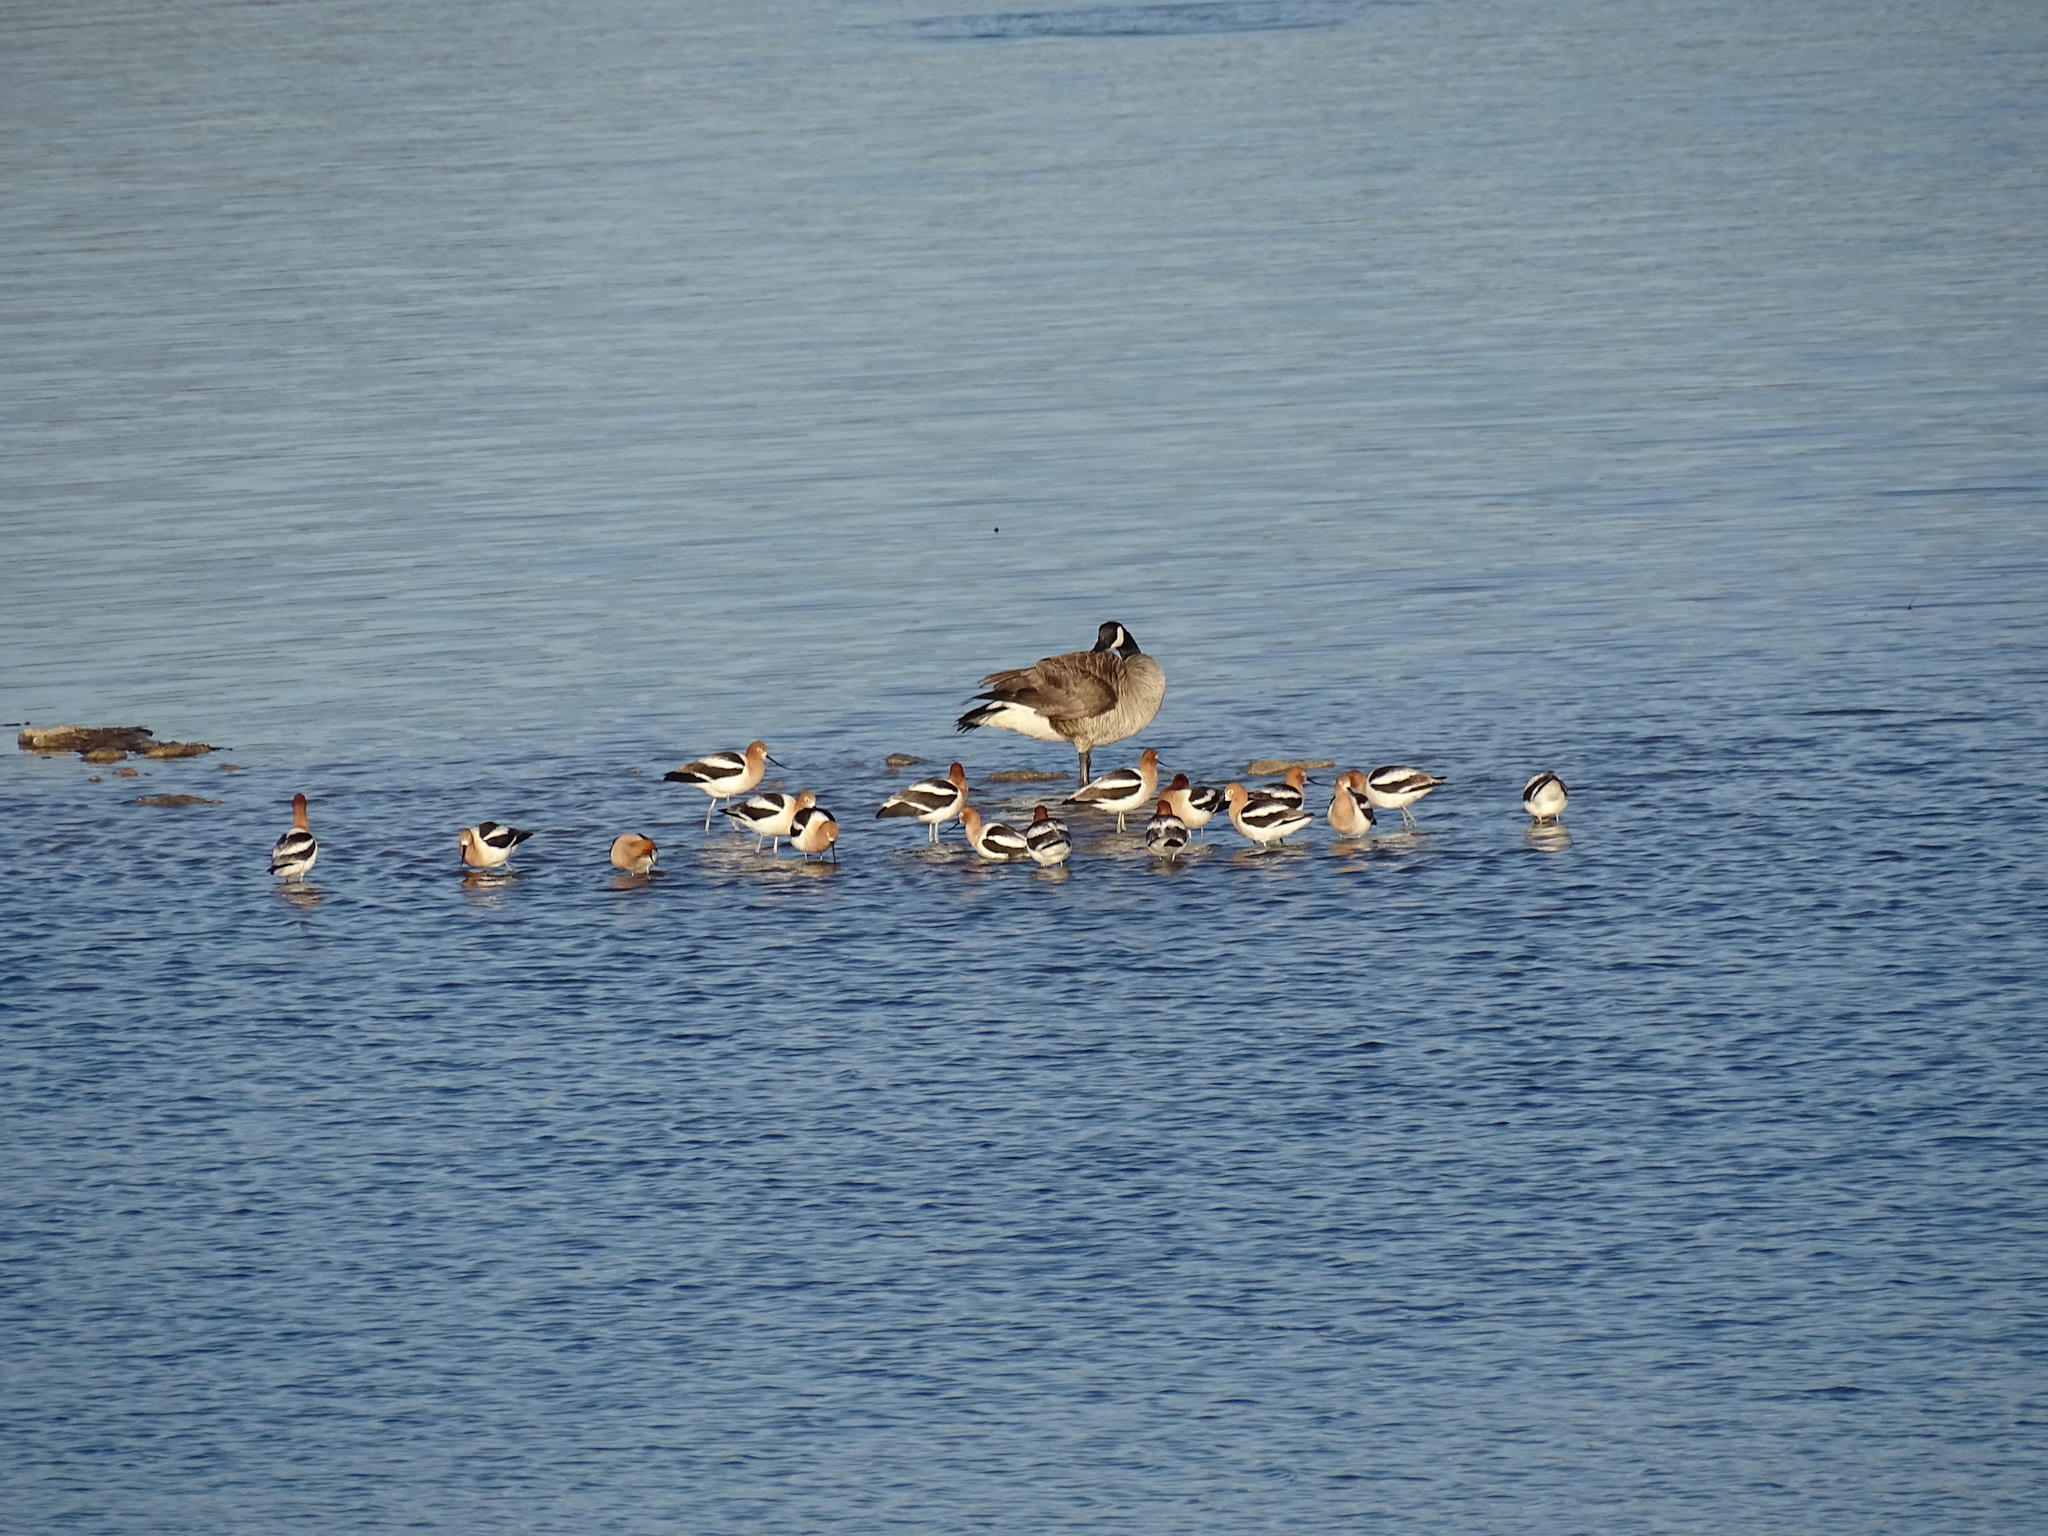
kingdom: Animalia
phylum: Chordata
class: Aves
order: Anseriformes
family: Anatidae
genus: Branta
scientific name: Branta canadensis
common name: Canada goose
